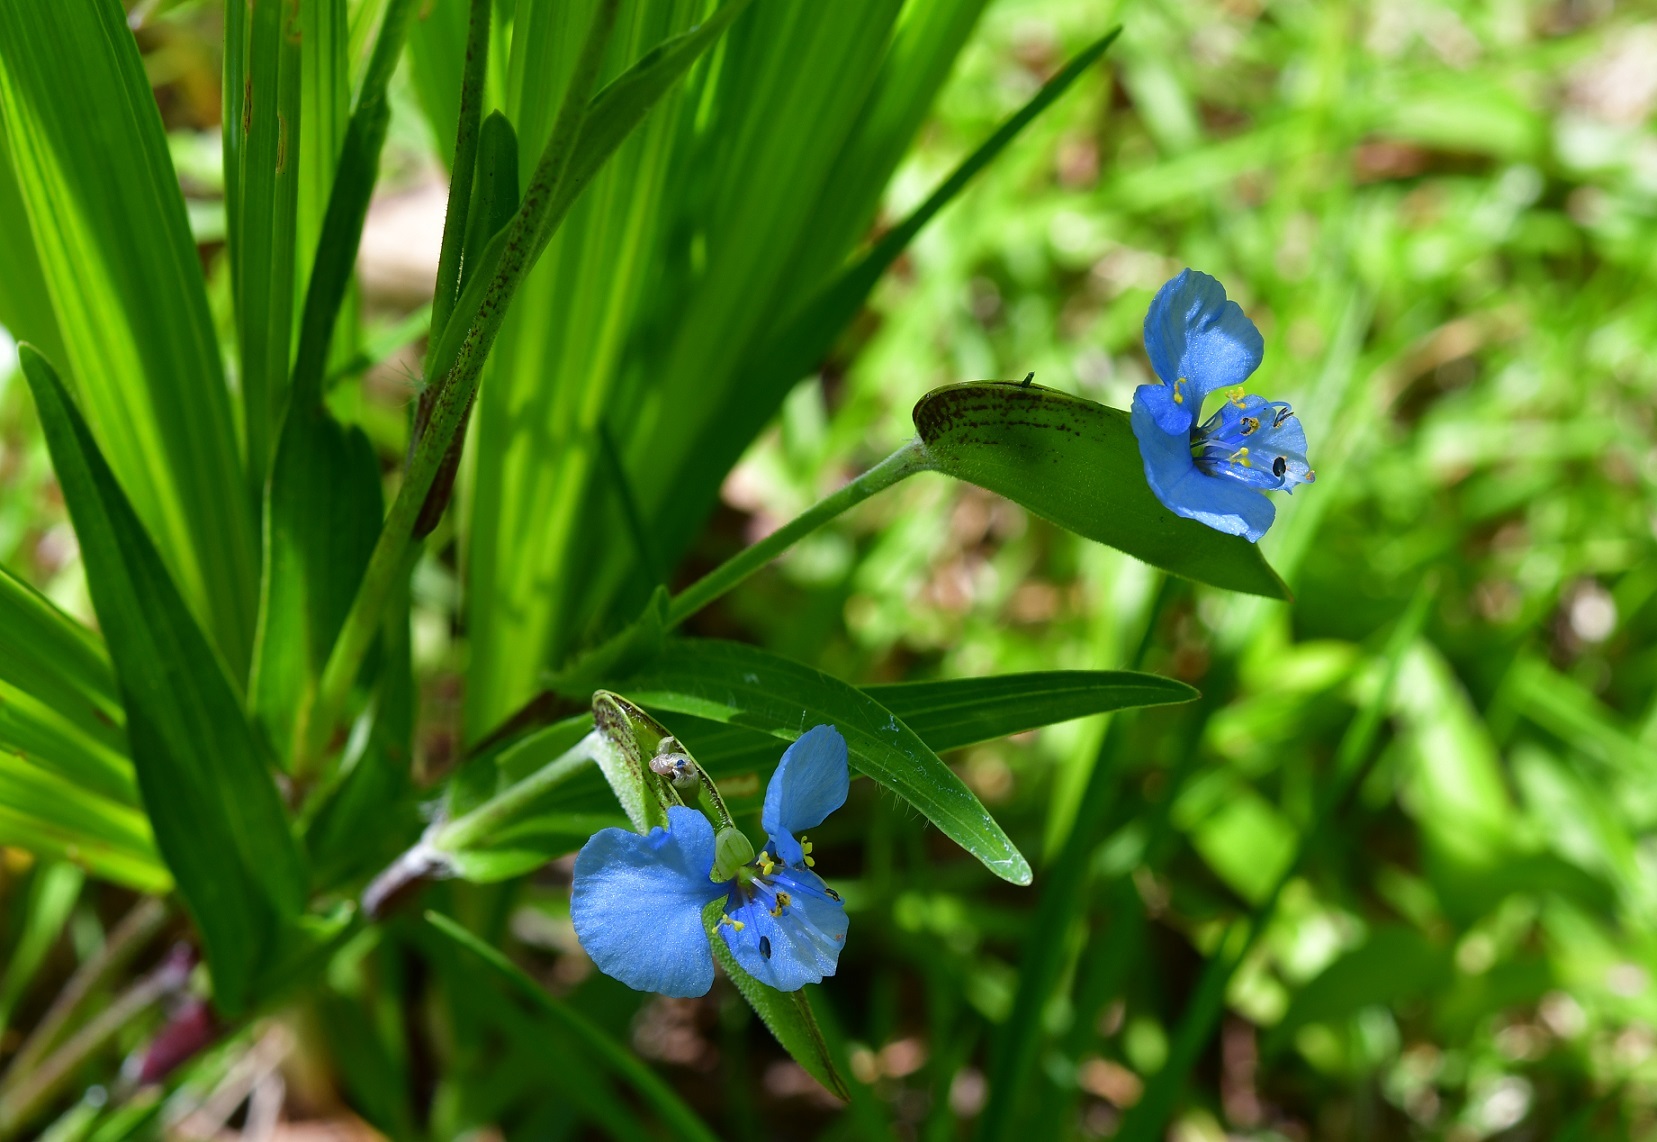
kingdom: Plantae
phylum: Tracheophyta
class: Liliopsida
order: Commelinales
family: Commelinaceae
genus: Commelina
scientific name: Commelina tuberosa
